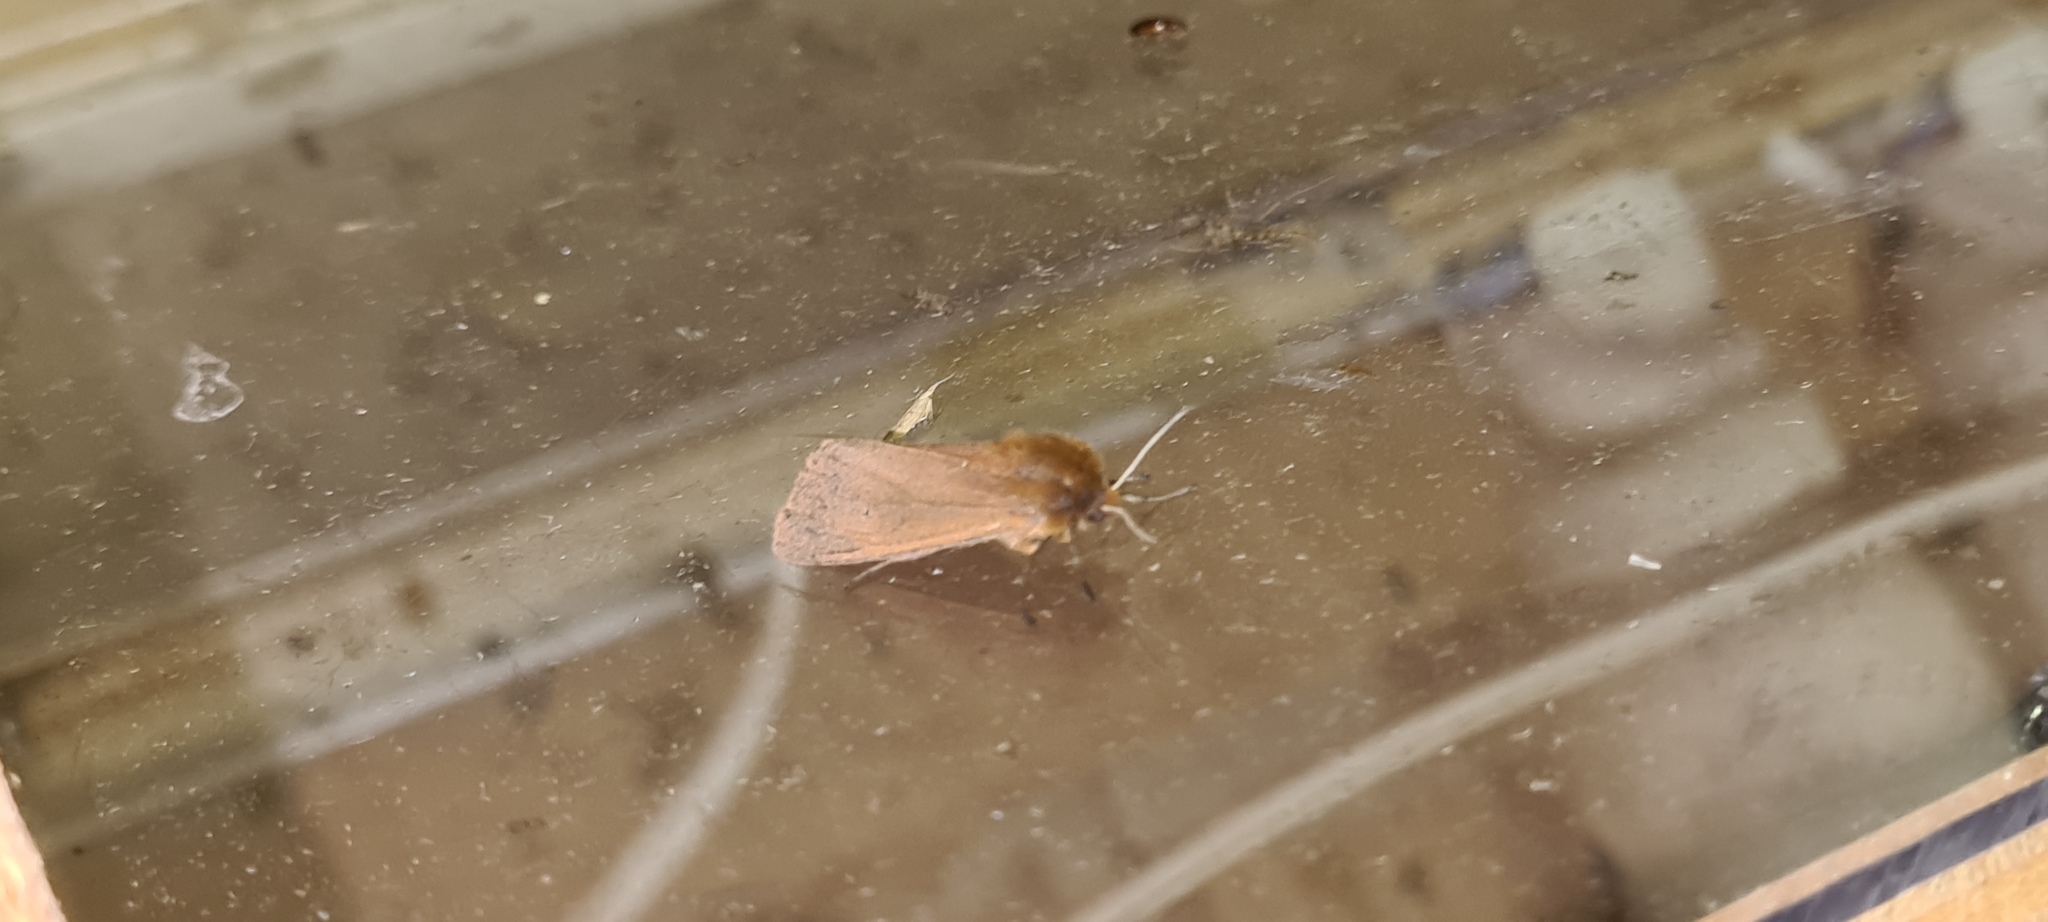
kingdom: Animalia
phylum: Arthropoda
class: Insecta
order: Lepidoptera
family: Erebidae
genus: Phragmatobia
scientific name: Phragmatobia fuliginosa
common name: Ruby tiger
